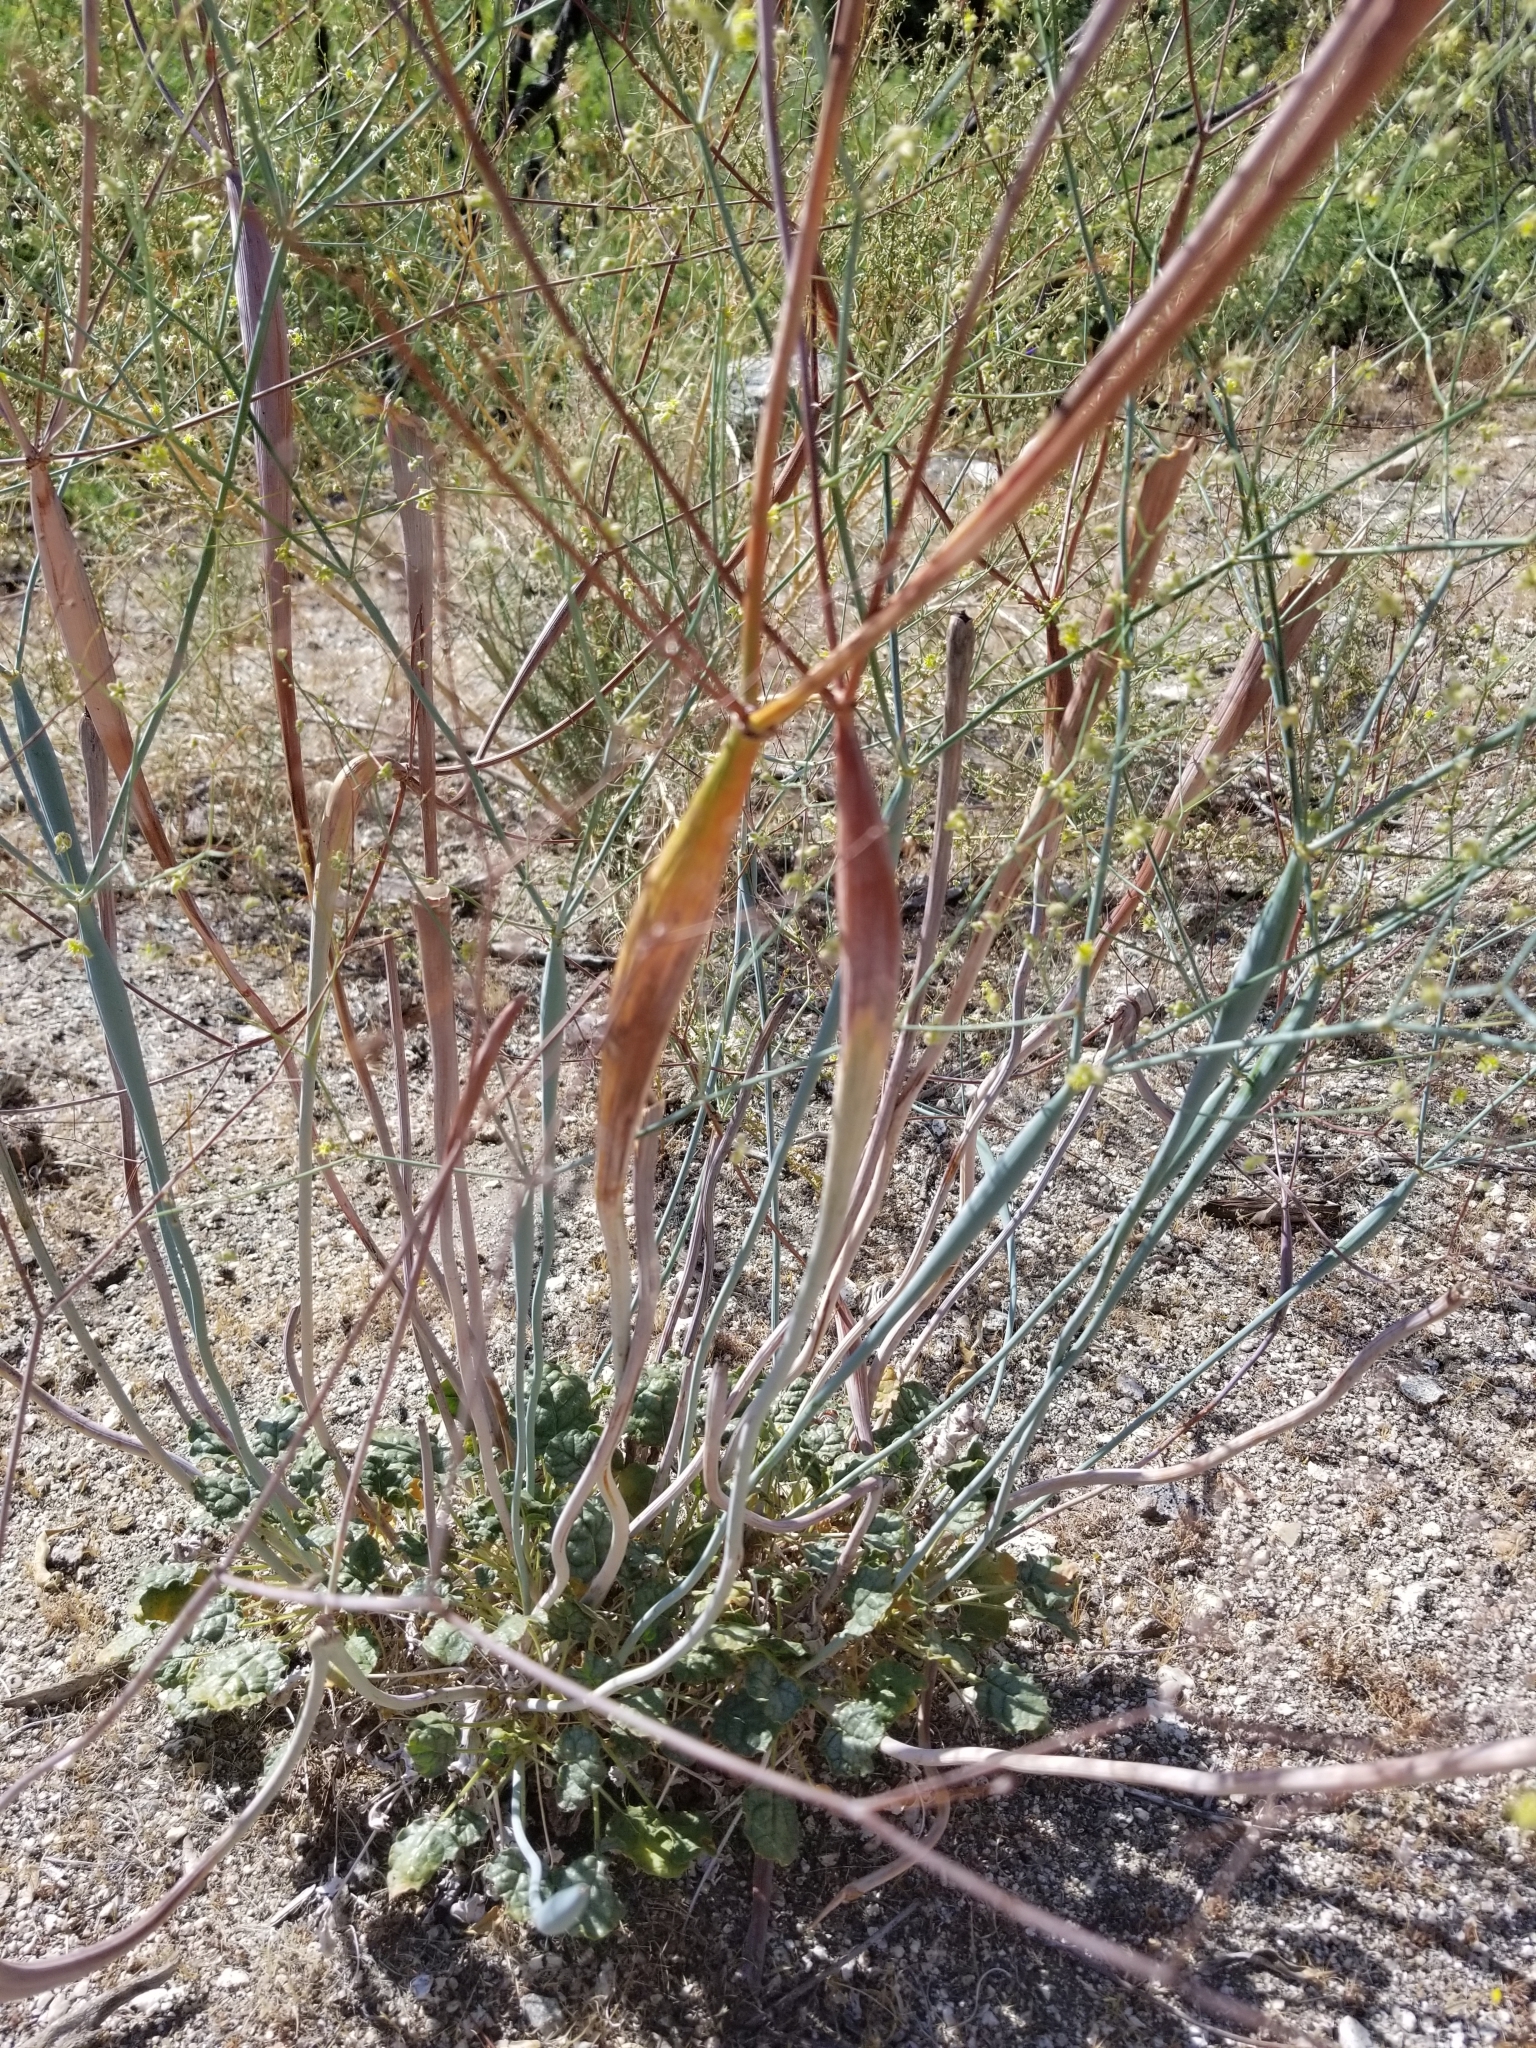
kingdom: Plantae
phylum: Tracheophyta
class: Magnoliopsida
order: Caryophyllales
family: Polygonaceae
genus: Eriogonum
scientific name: Eriogonum inflatum
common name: Desert trumpet
